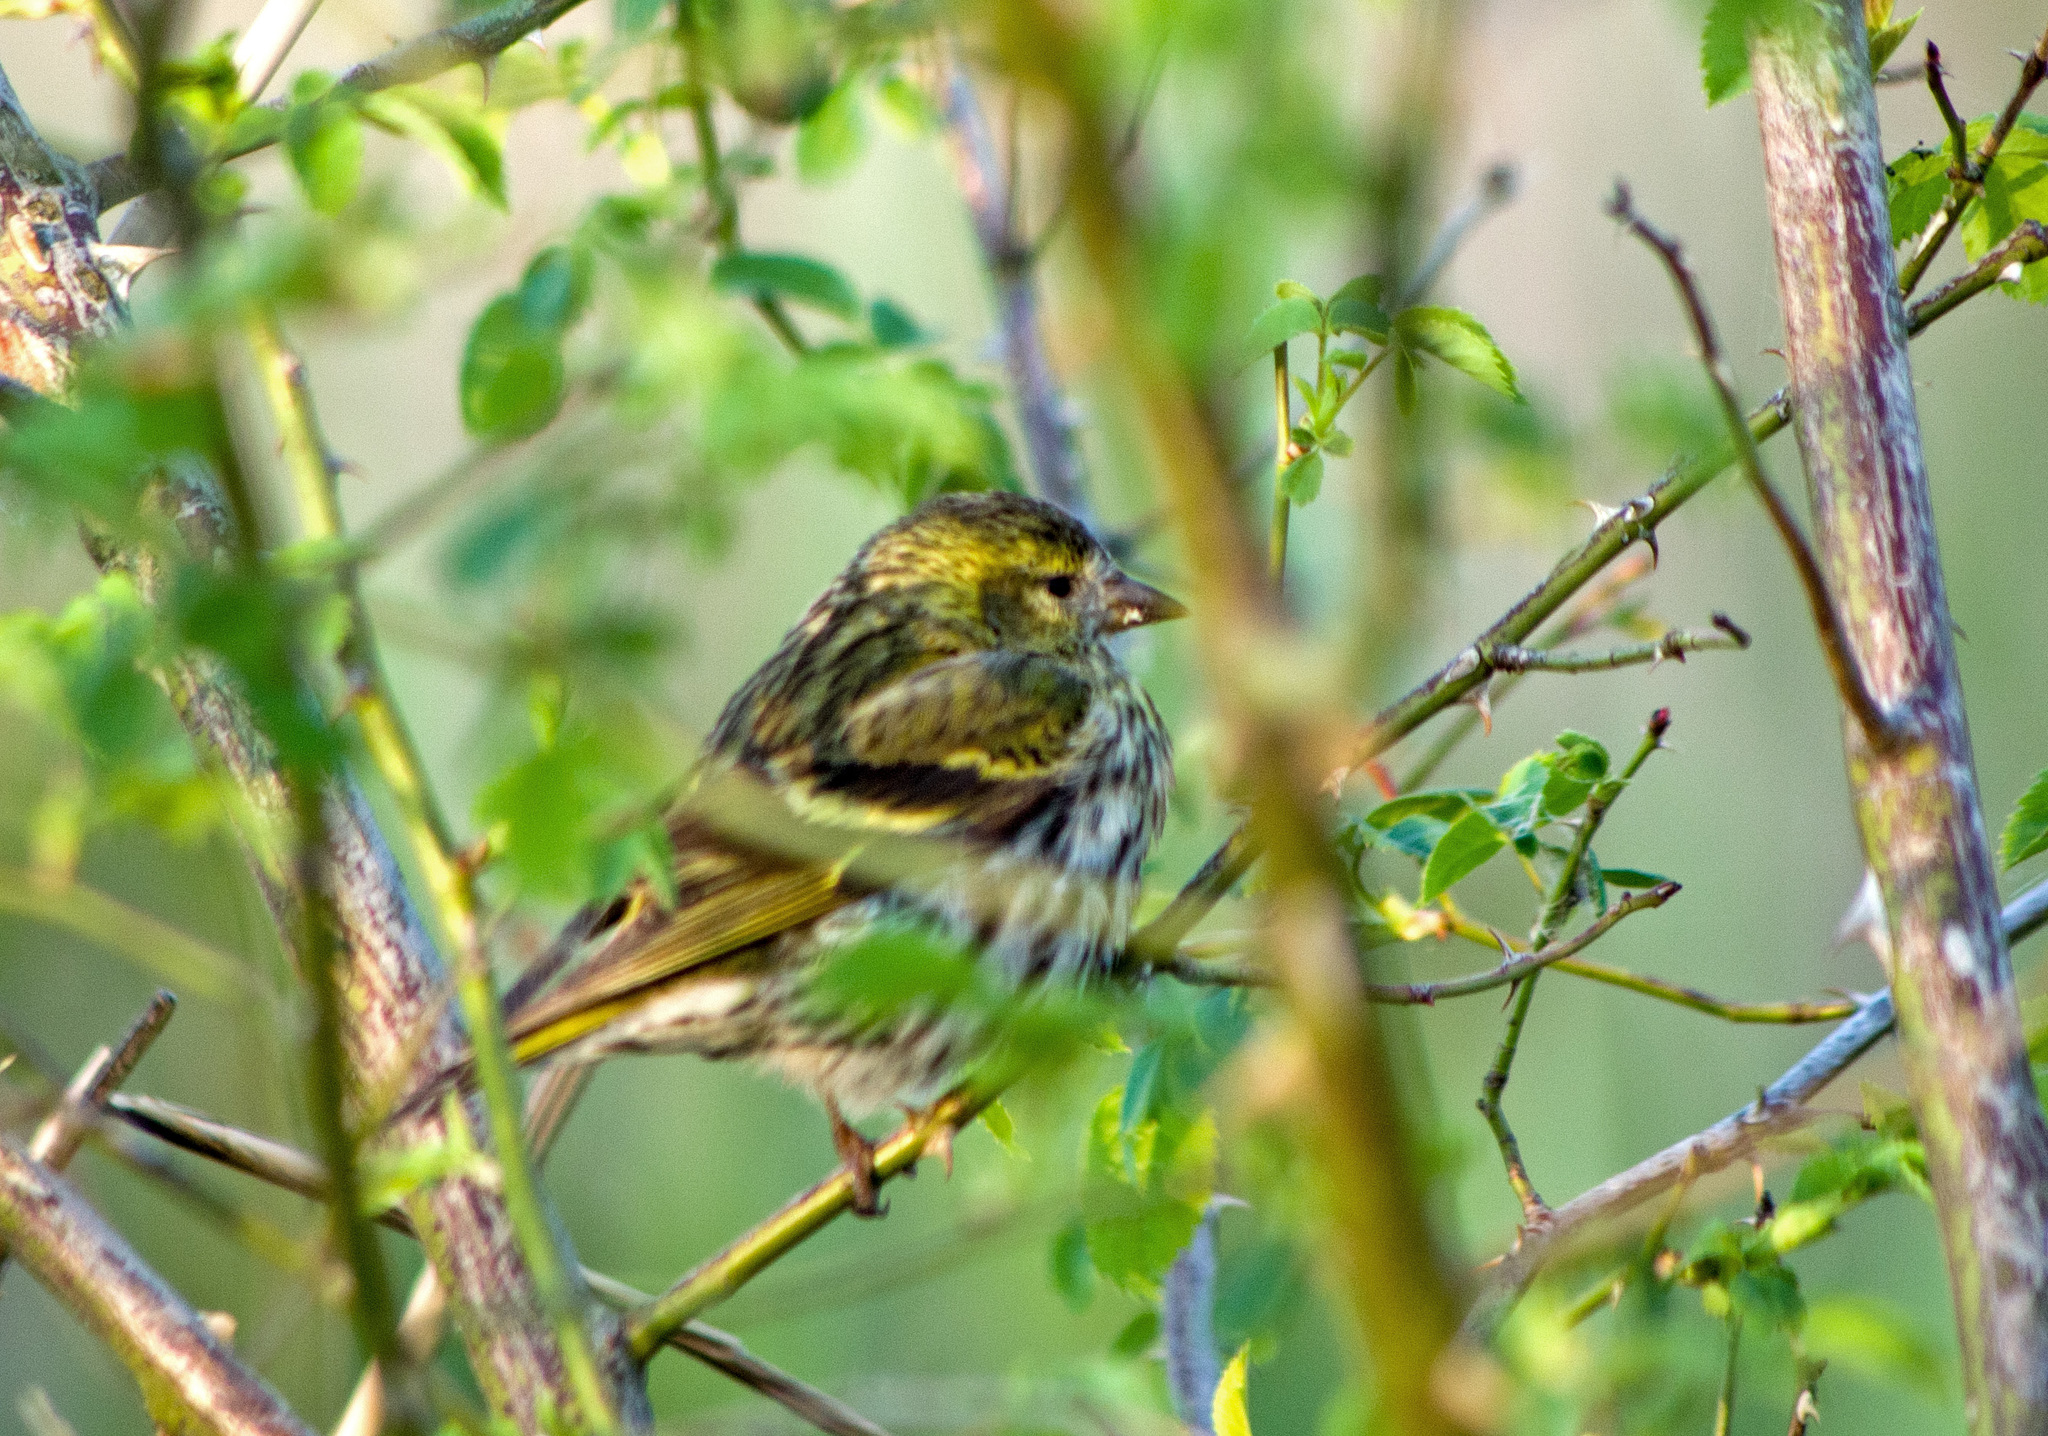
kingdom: Animalia
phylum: Chordata
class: Aves
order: Passeriformes
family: Fringillidae
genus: Spinus
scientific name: Spinus spinus
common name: Eurasian siskin
